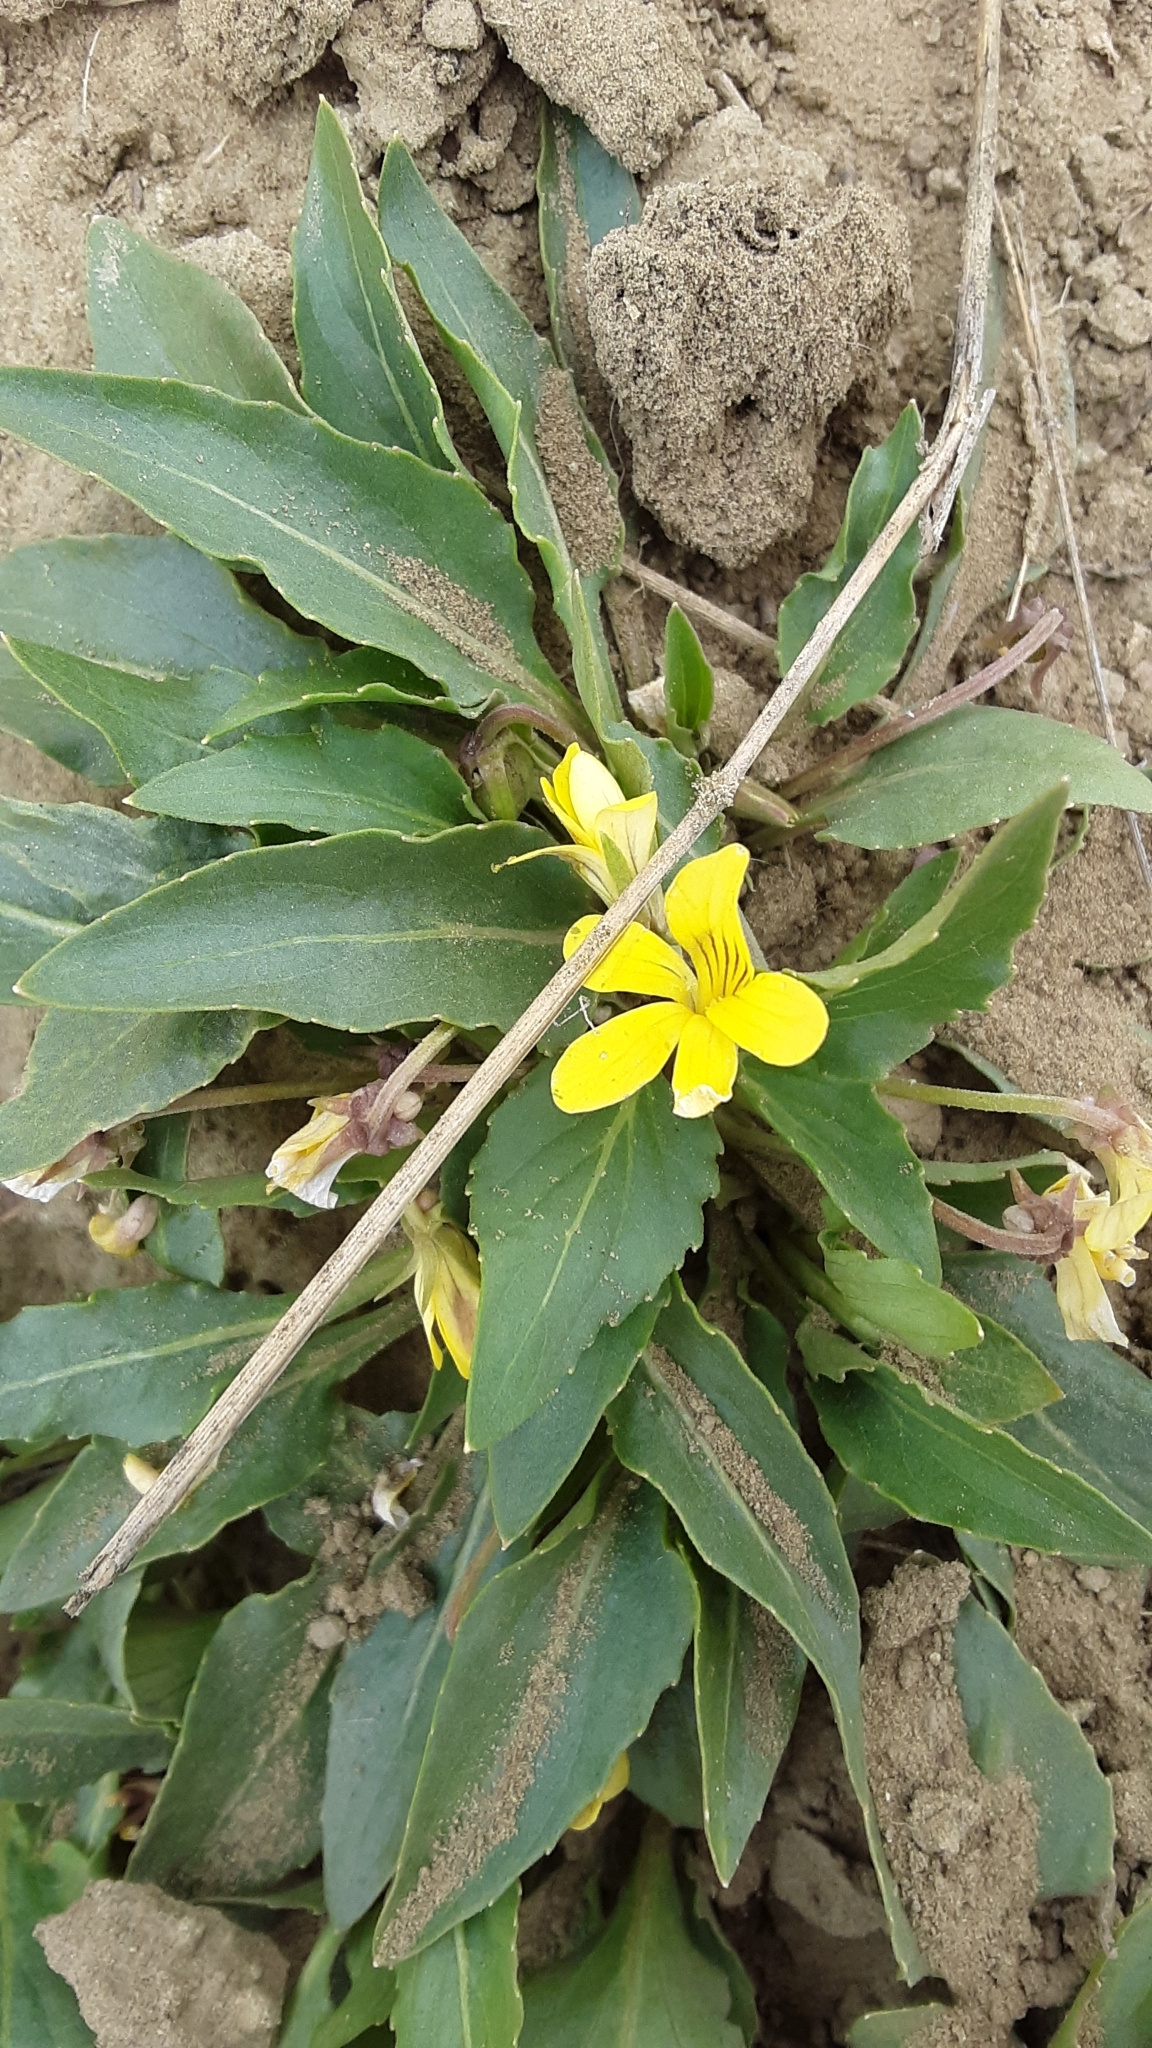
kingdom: Plantae
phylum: Tracheophyta
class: Magnoliopsida
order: Malpighiales
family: Violaceae
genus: Viola
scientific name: Viola nuttallii
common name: Yellow prairie violet
